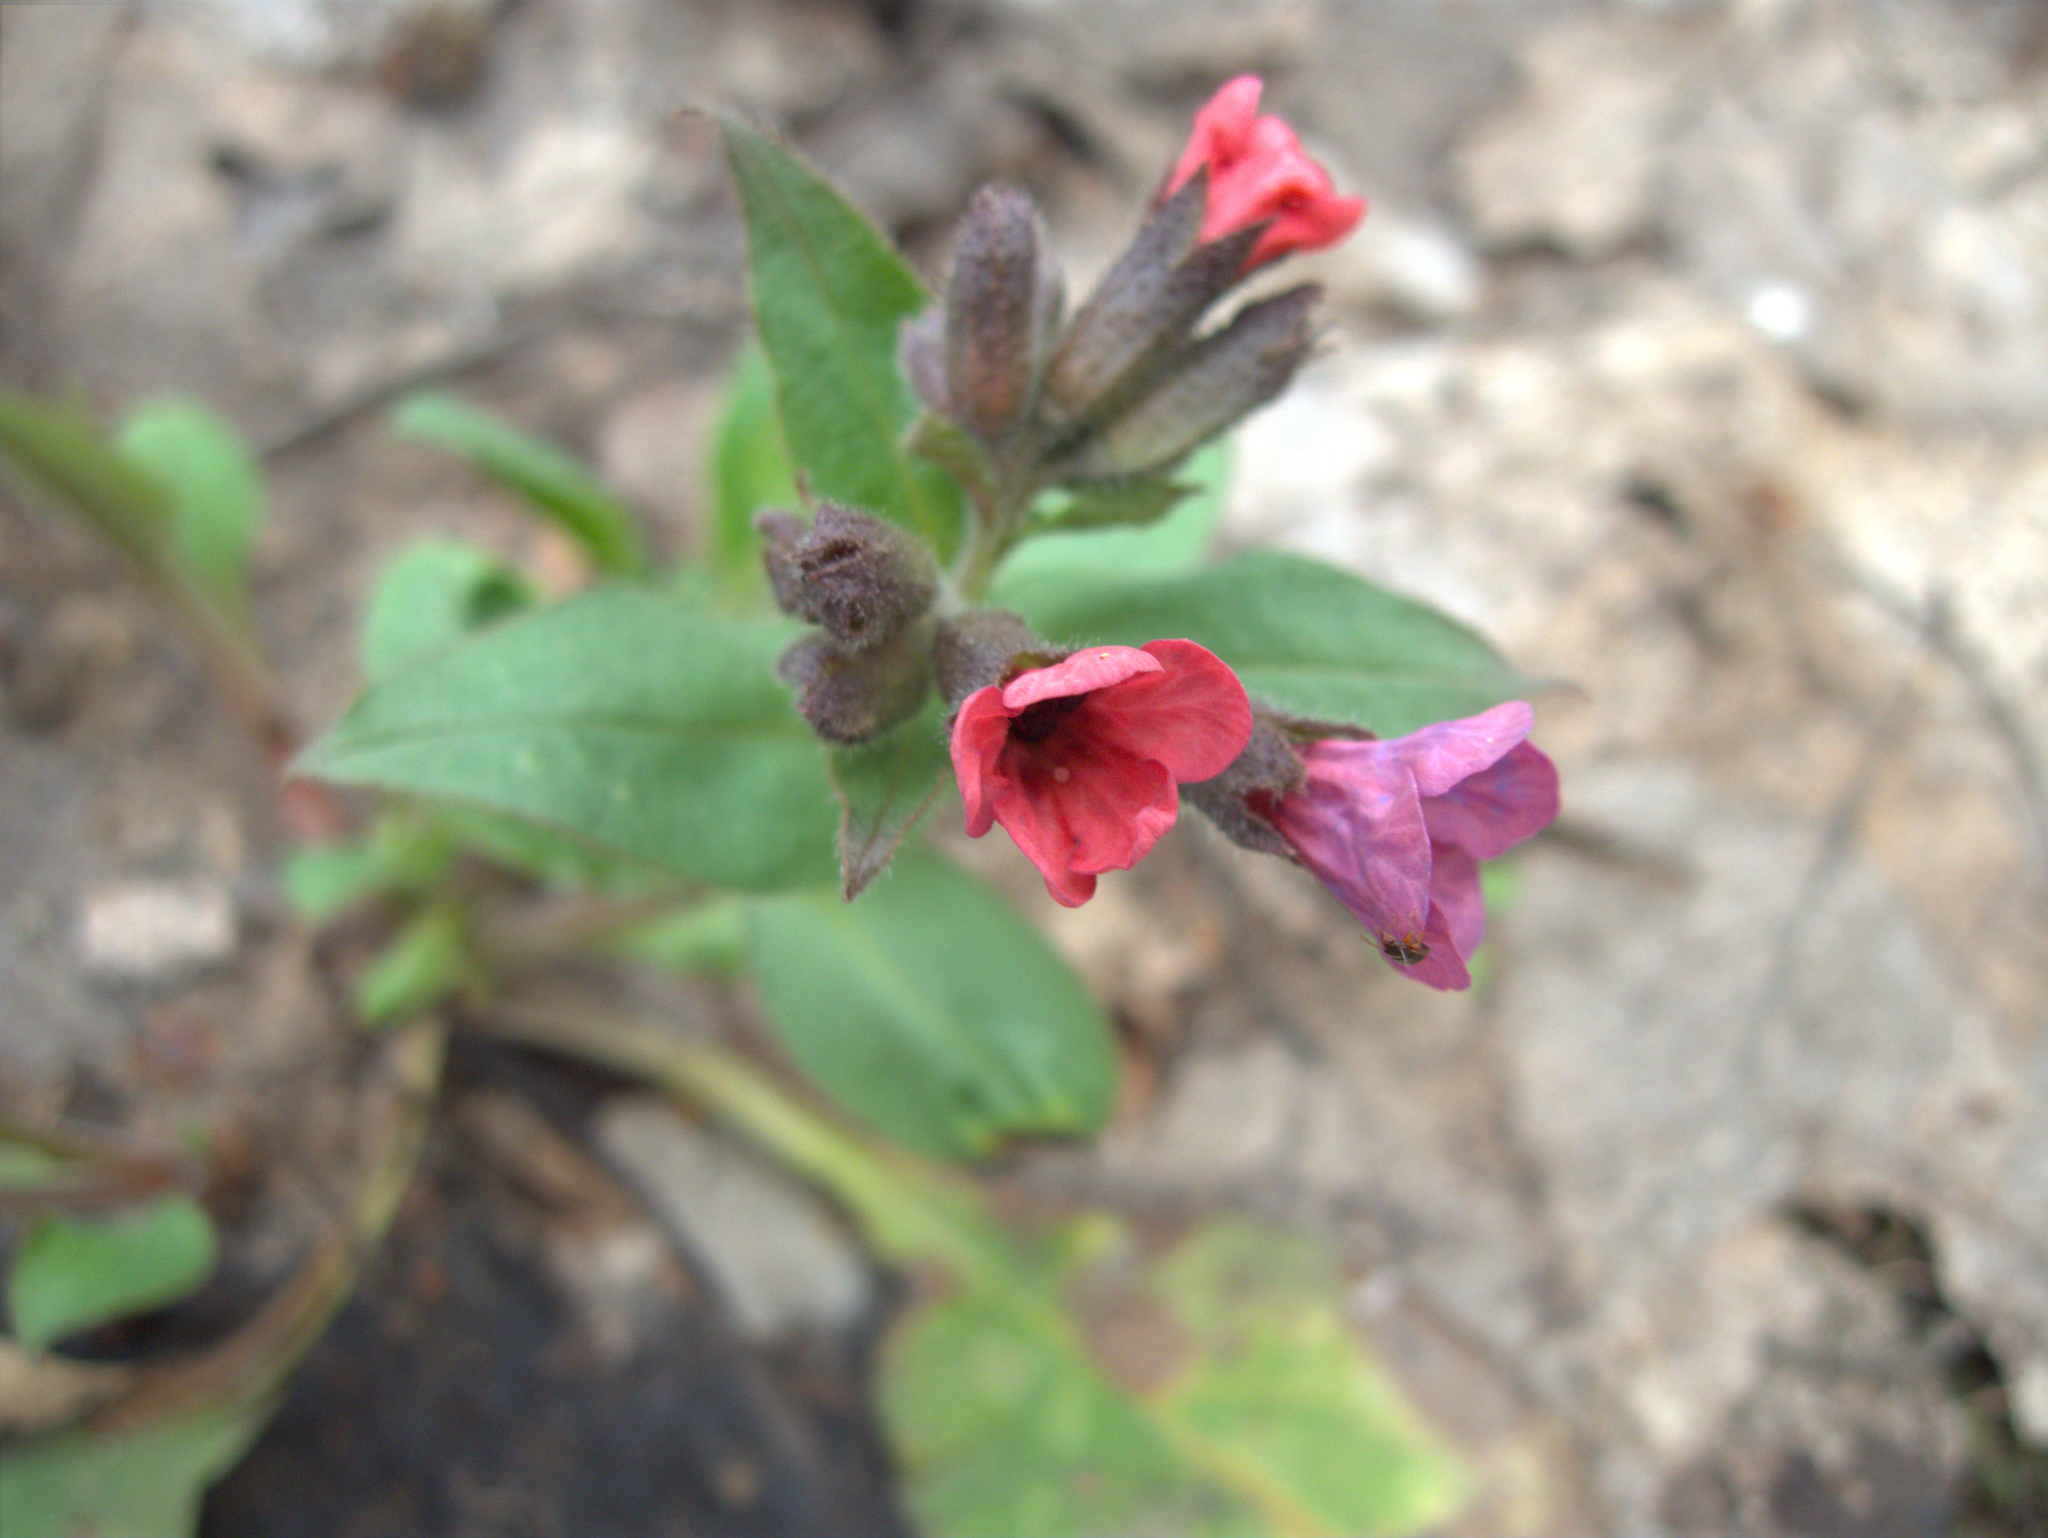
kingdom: Plantae
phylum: Tracheophyta
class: Magnoliopsida
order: Boraginales
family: Boraginaceae
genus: Pulmonaria
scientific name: Pulmonaria obscura
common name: Suffolk lungwort
